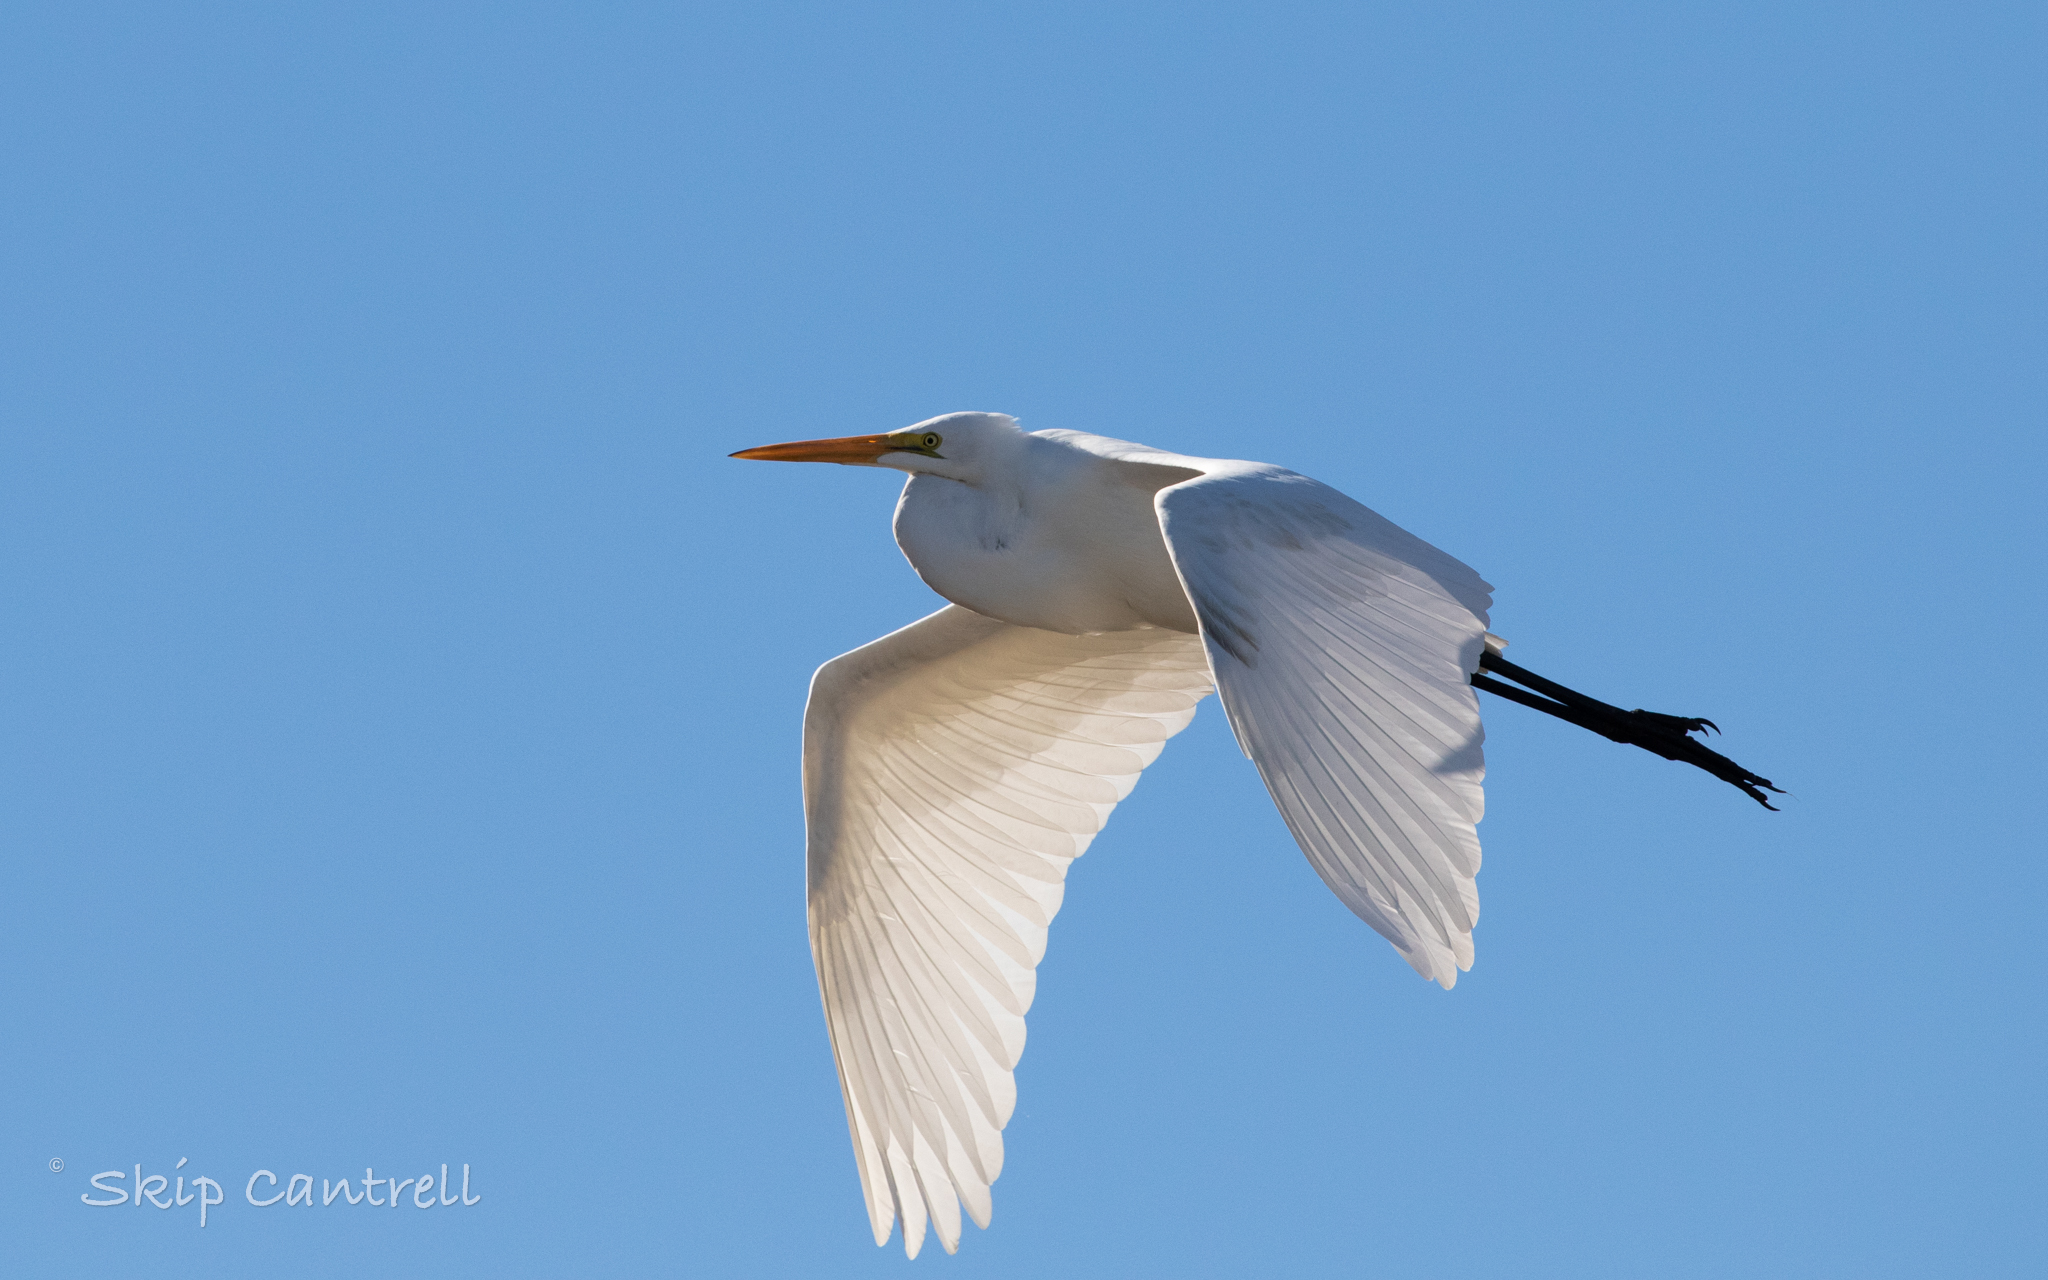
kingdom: Animalia
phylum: Chordata
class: Aves
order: Pelecaniformes
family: Ardeidae
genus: Ardea
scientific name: Ardea alba
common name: Great egret
